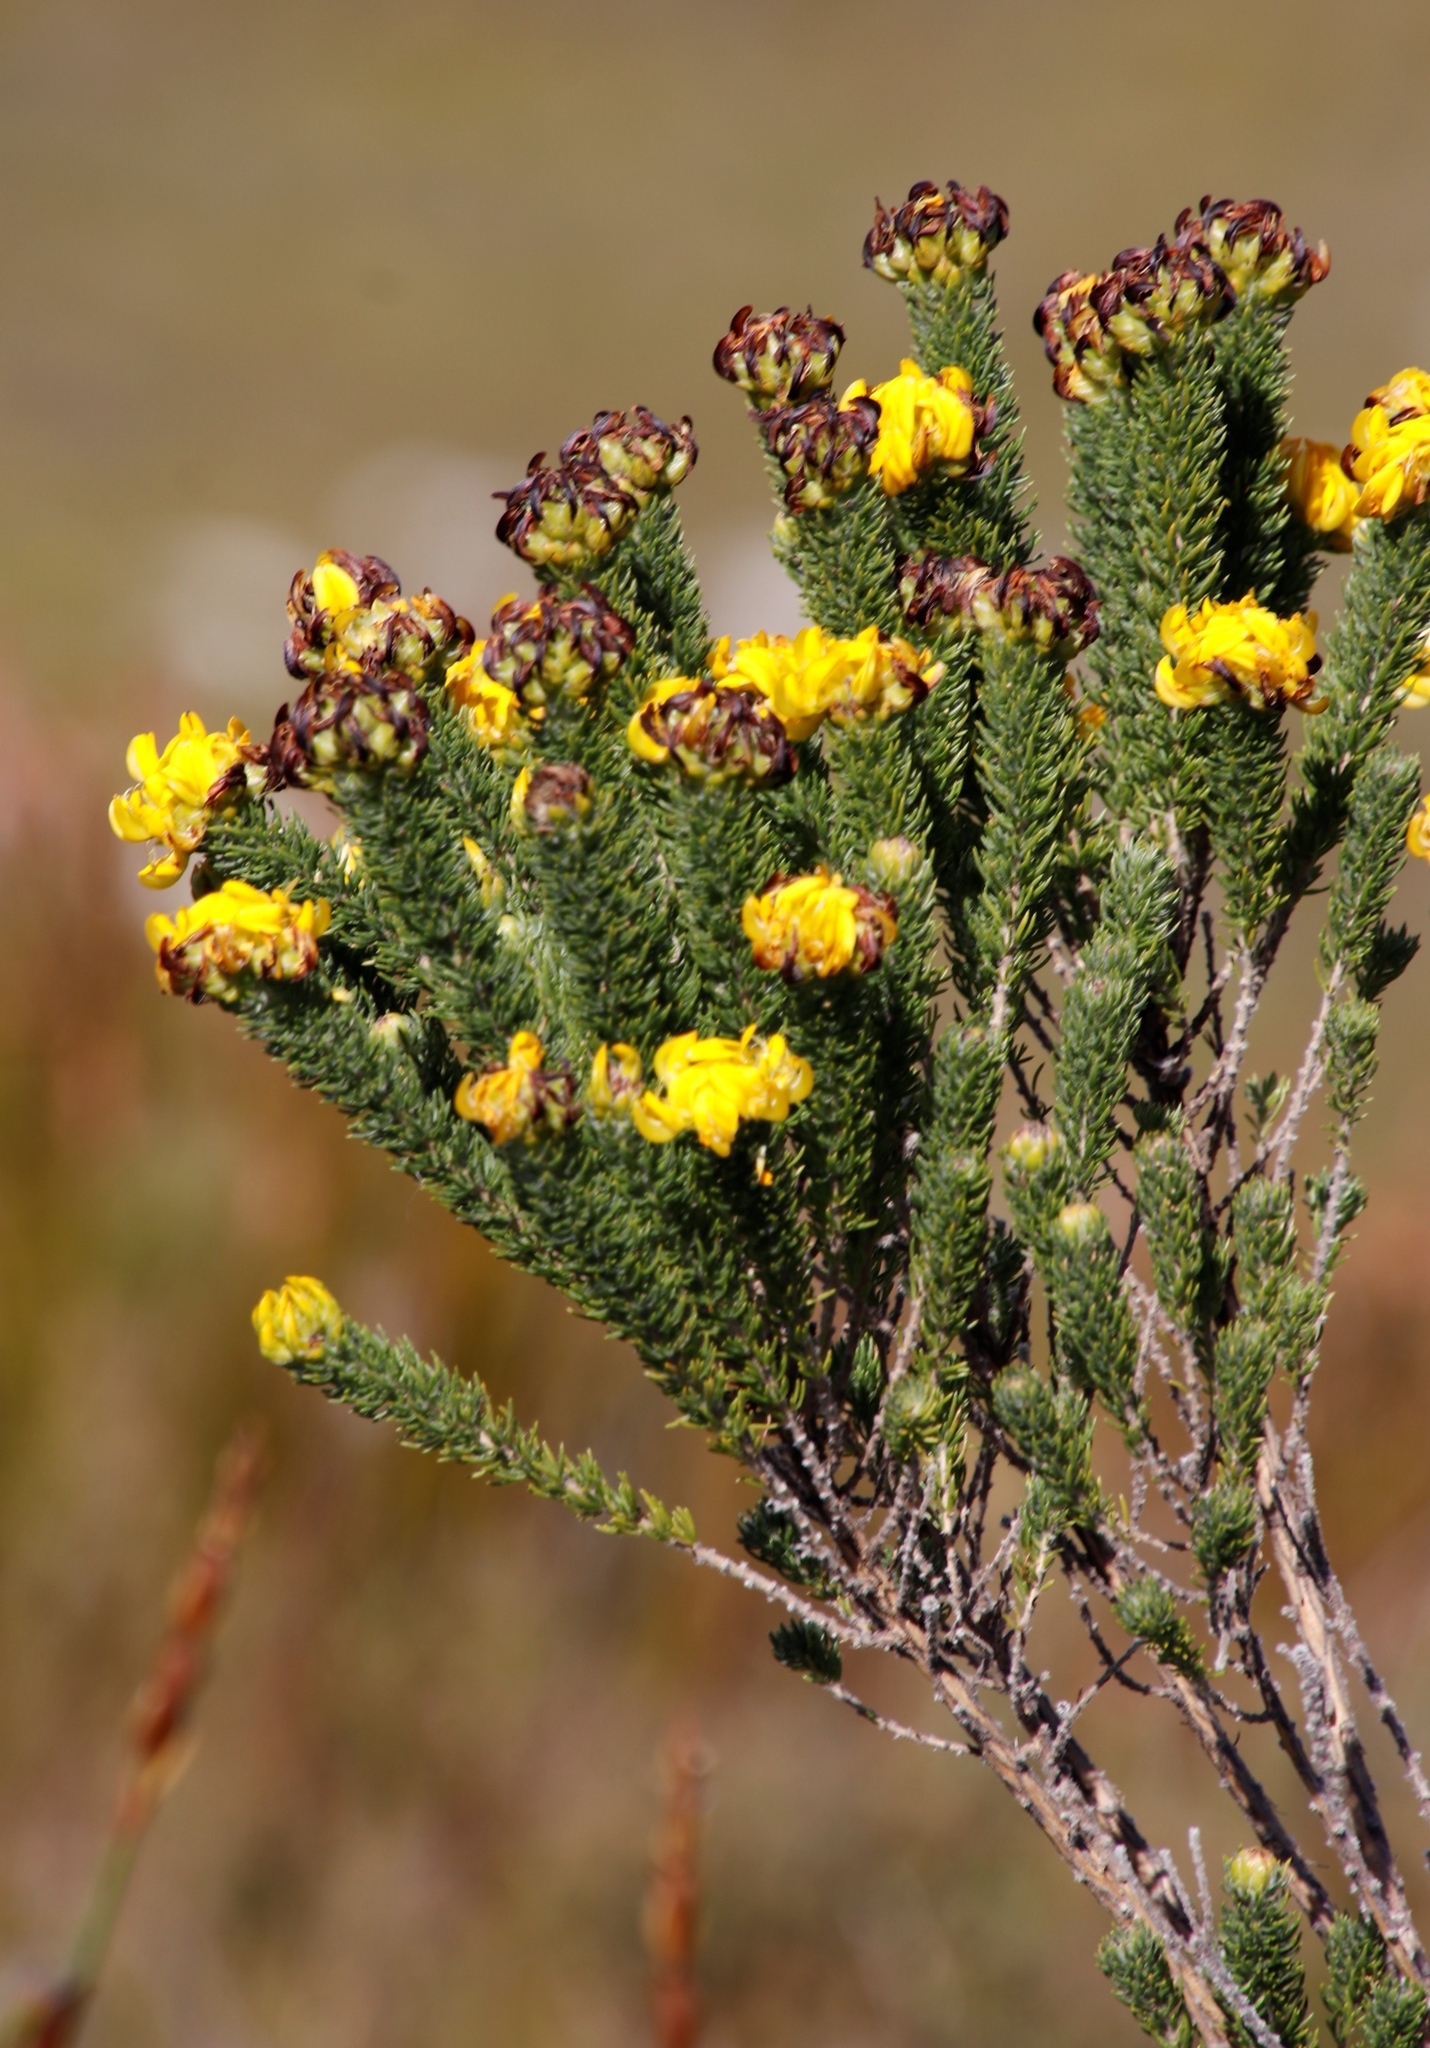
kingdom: Plantae
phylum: Tracheophyta
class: Magnoliopsida
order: Fabales
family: Fabaceae
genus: Aspalathus
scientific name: Aspalathus capitata
